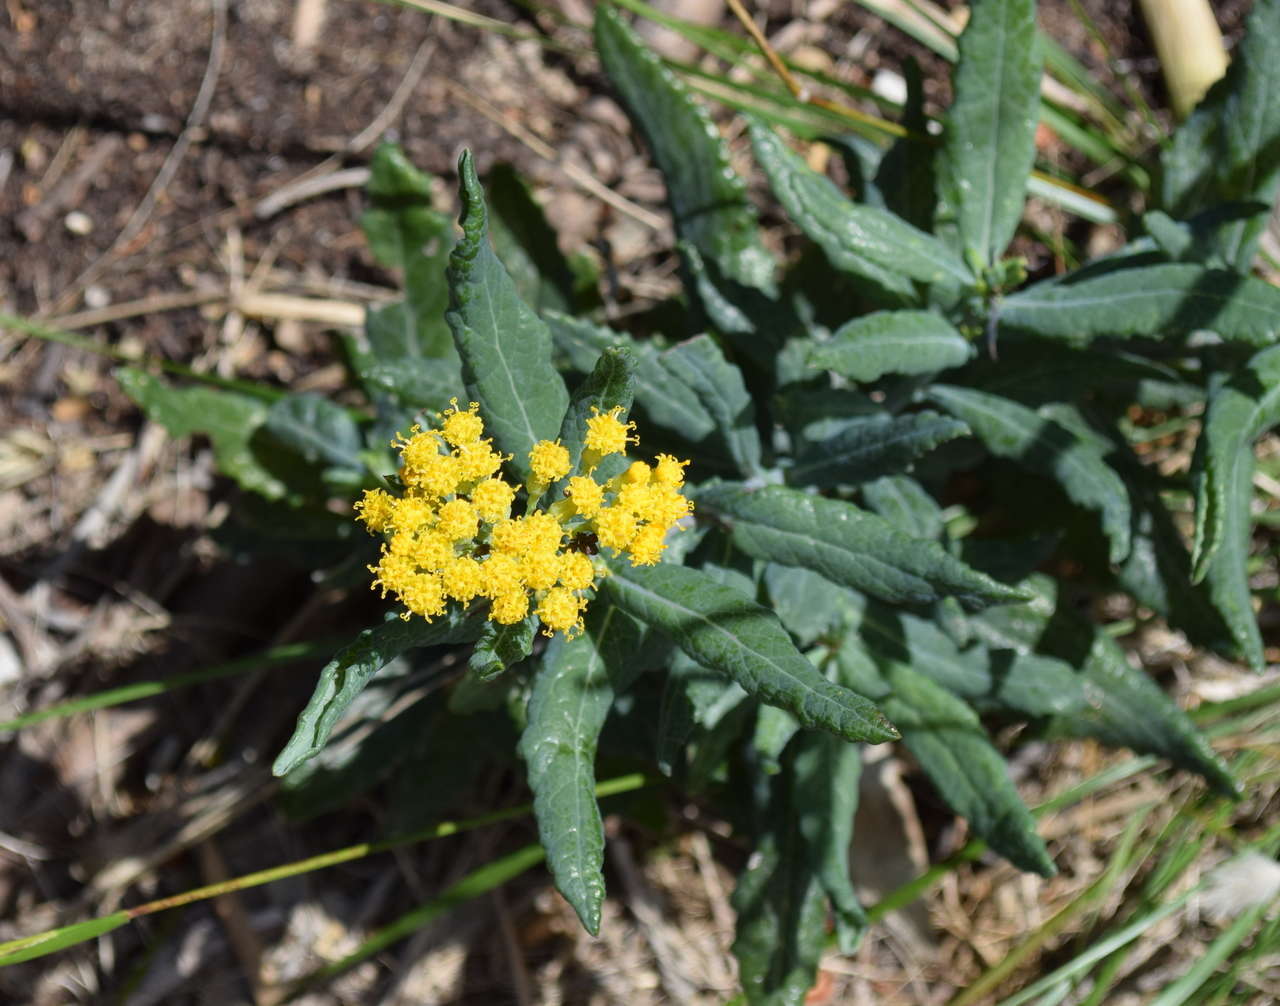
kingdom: Plantae
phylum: Tracheophyta
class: Magnoliopsida
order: Asterales
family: Asteraceae
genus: Senecio
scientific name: Senecio odoratus
